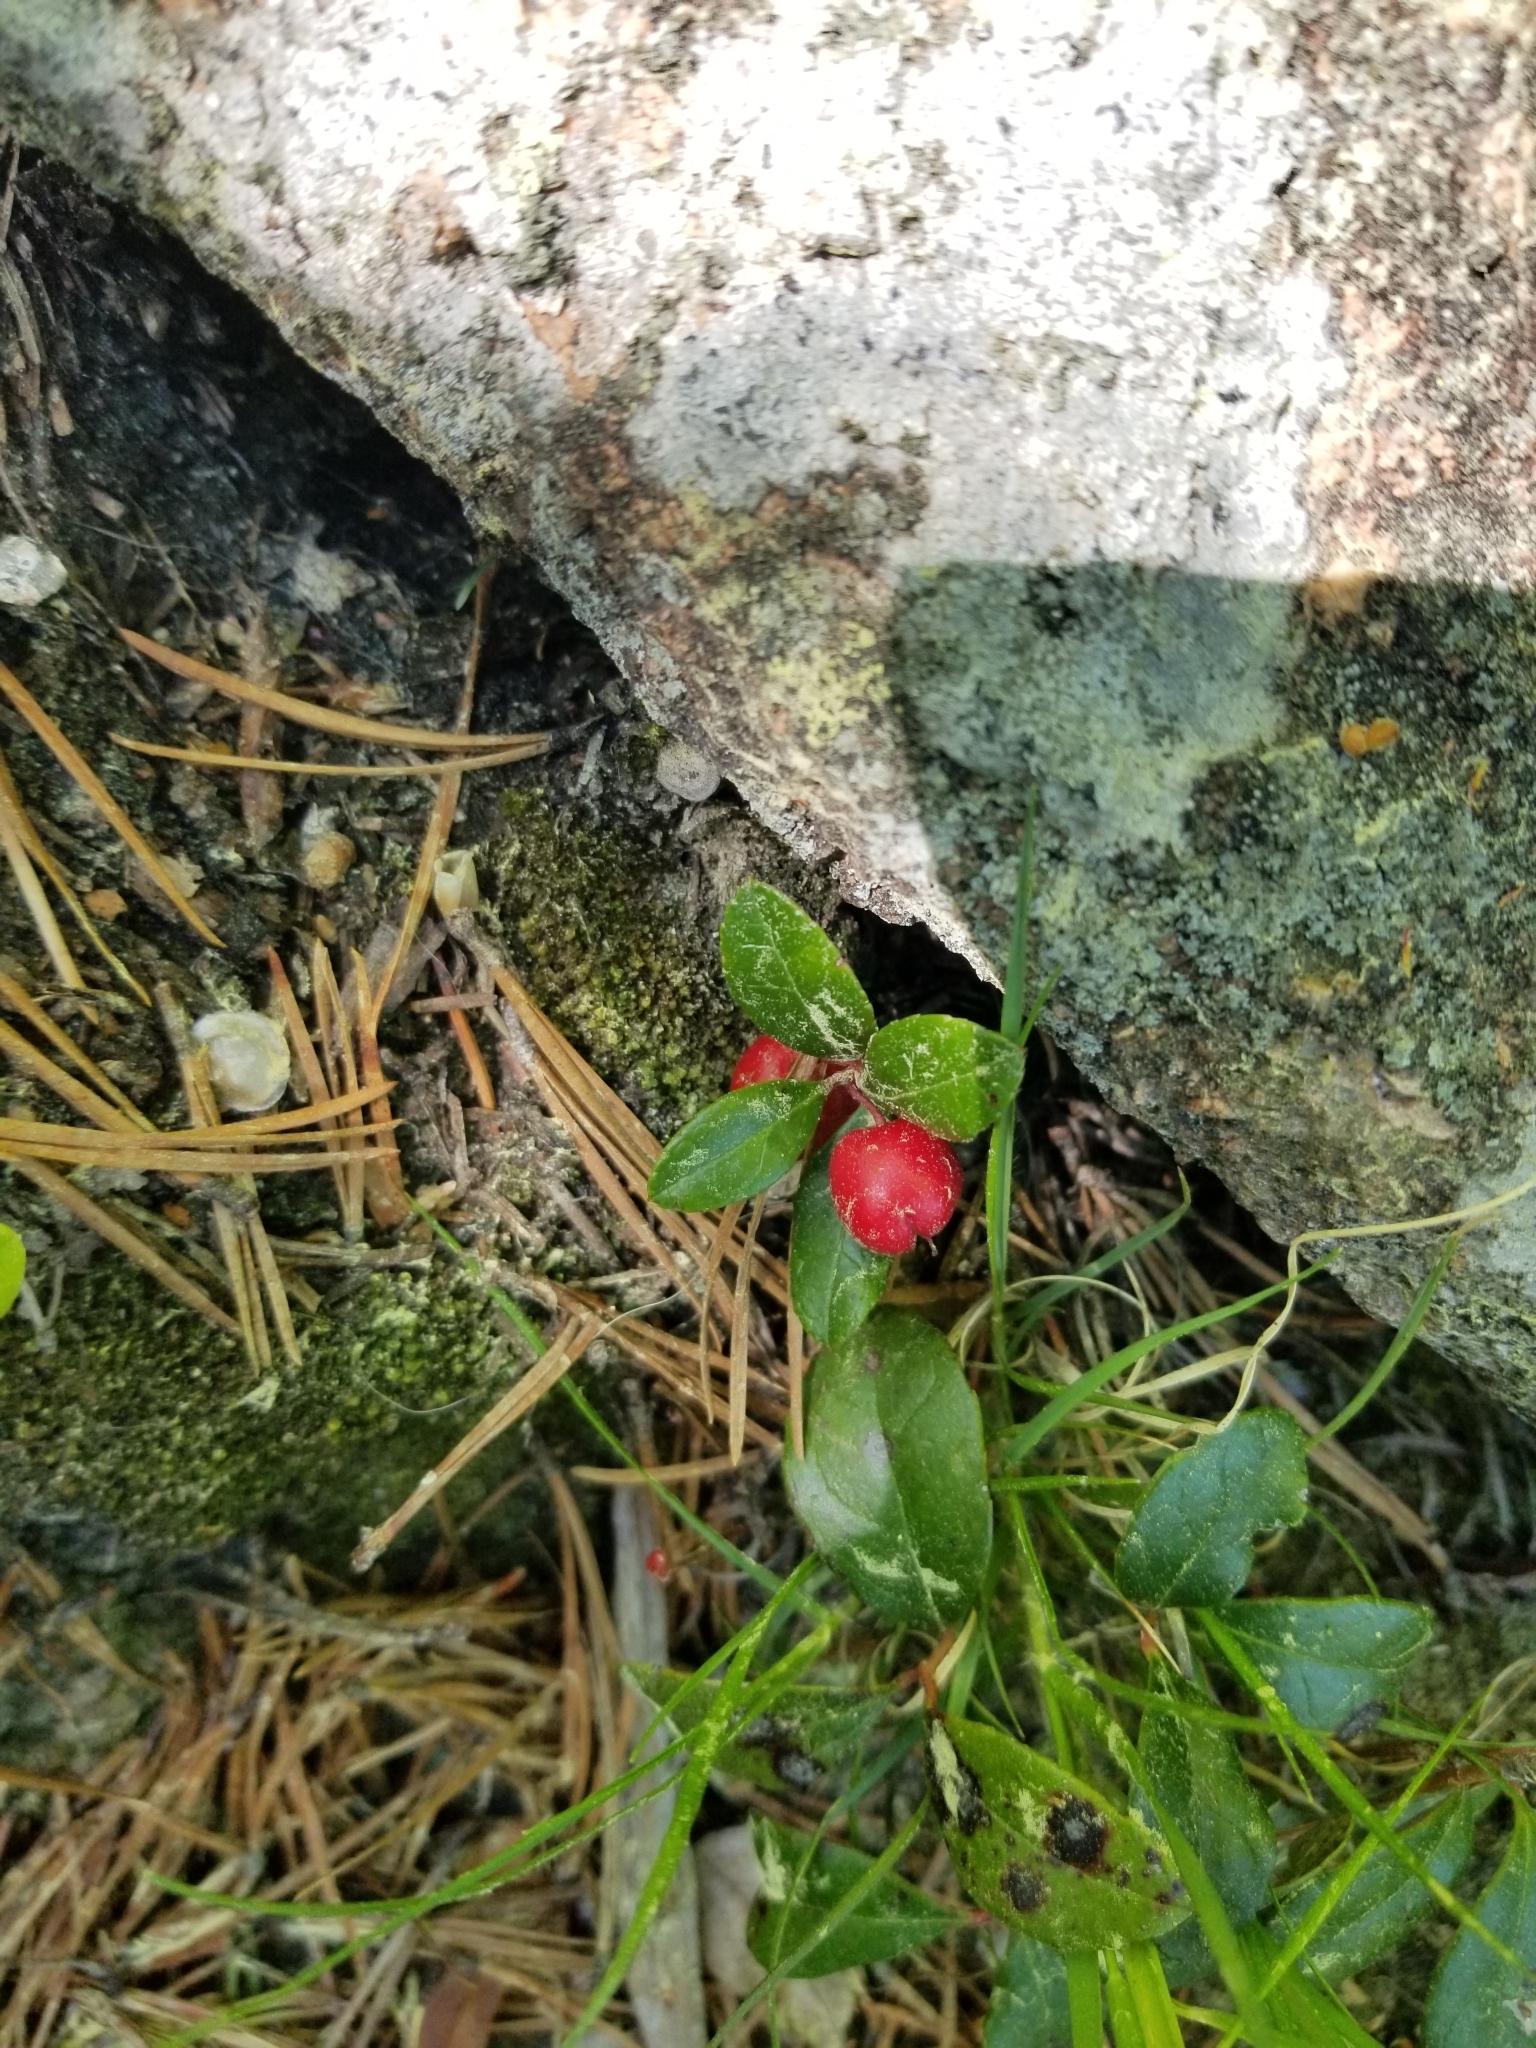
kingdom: Plantae
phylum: Tracheophyta
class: Magnoliopsida
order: Ericales
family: Ericaceae
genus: Gaultheria
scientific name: Gaultheria procumbens
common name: Checkerberry
